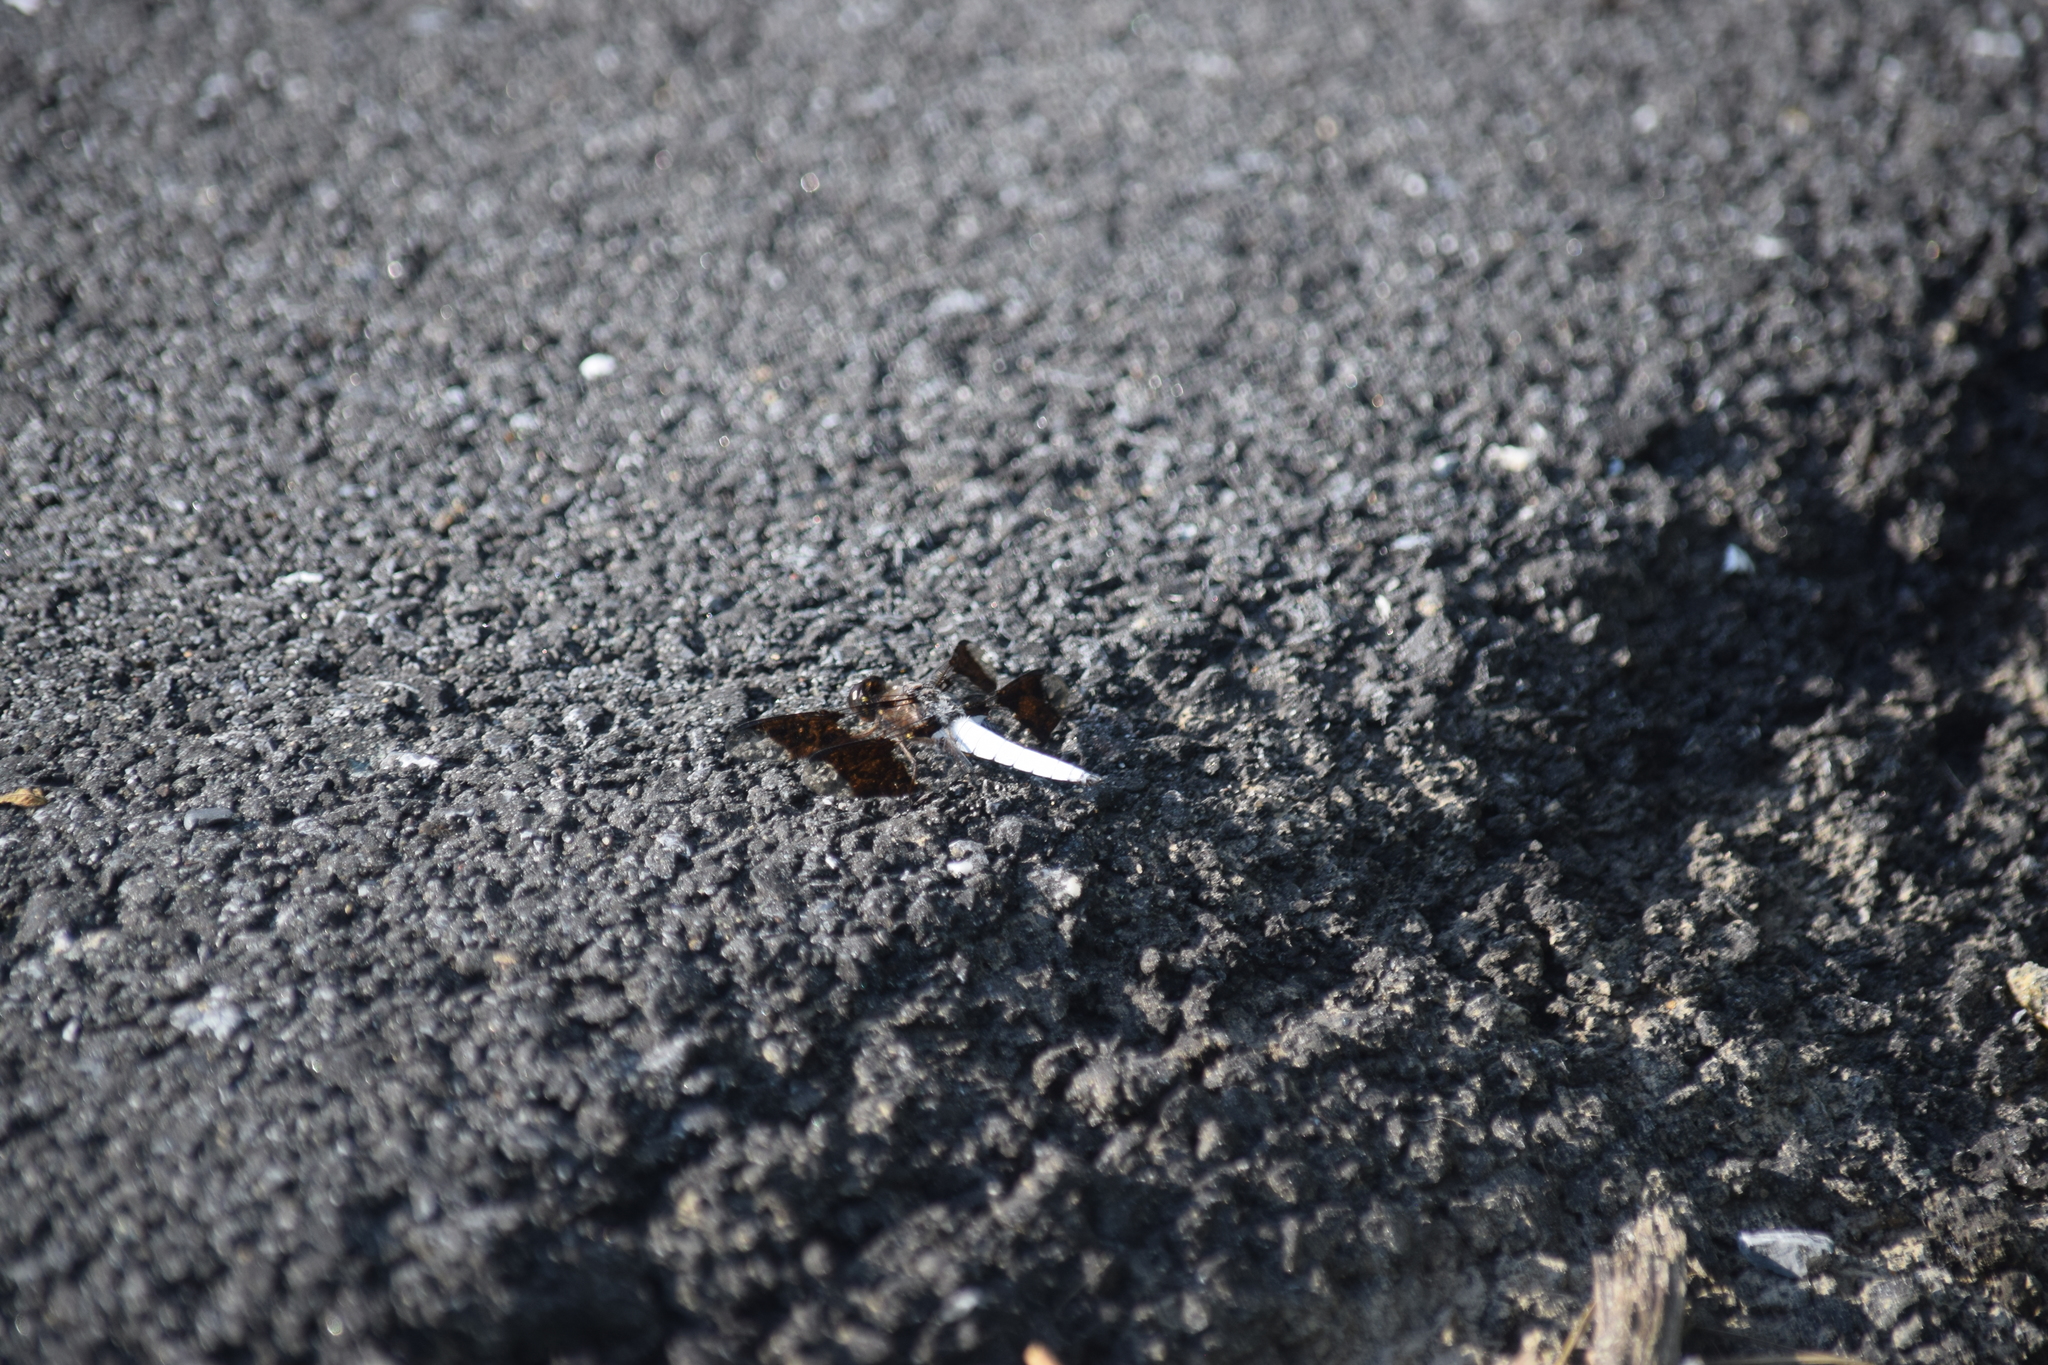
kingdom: Animalia
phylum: Arthropoda
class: Insecta
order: Odonata
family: Libellulidae
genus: Plathemis
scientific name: Plathemis lydia
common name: Common whitetail
